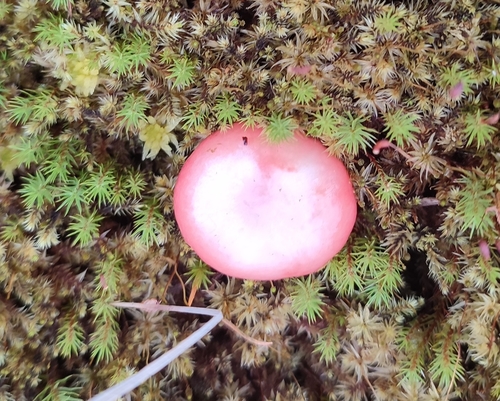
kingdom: Fungi
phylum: Basidiomycota
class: Agaricomycetes
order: Russulales
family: Russulaceae
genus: Russula
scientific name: Russula
